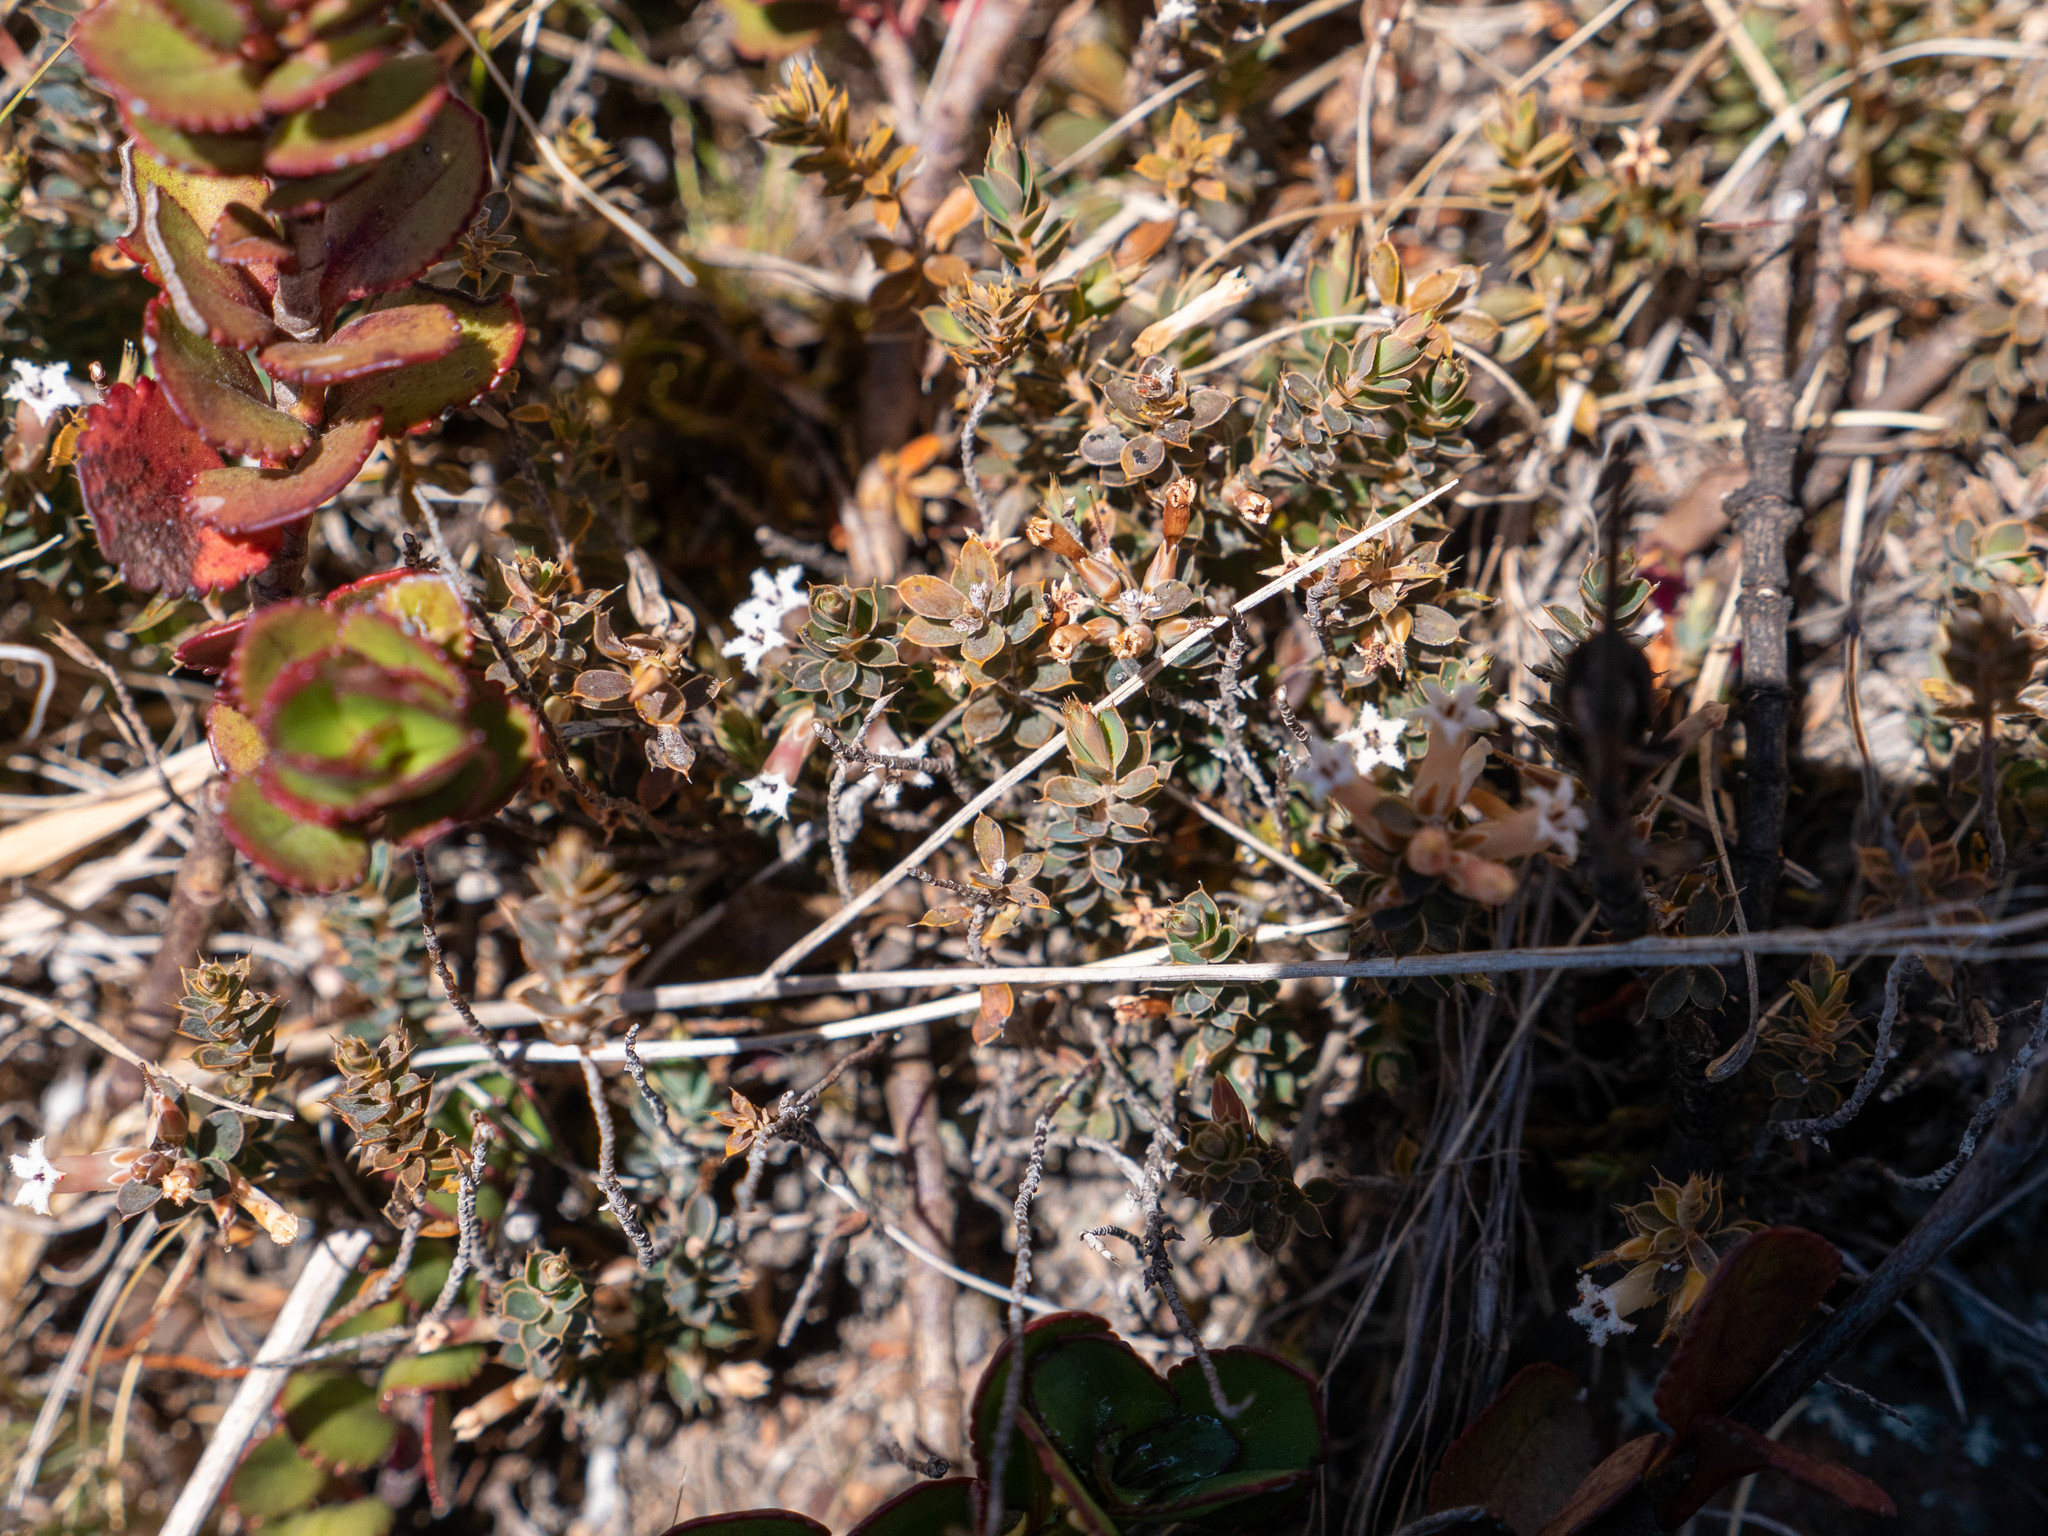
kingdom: Plantae
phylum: Tracheophyta
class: Magnoliopsida
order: Ericales
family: Ericaceae
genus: Styphelia
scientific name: Styphelia nesophila
